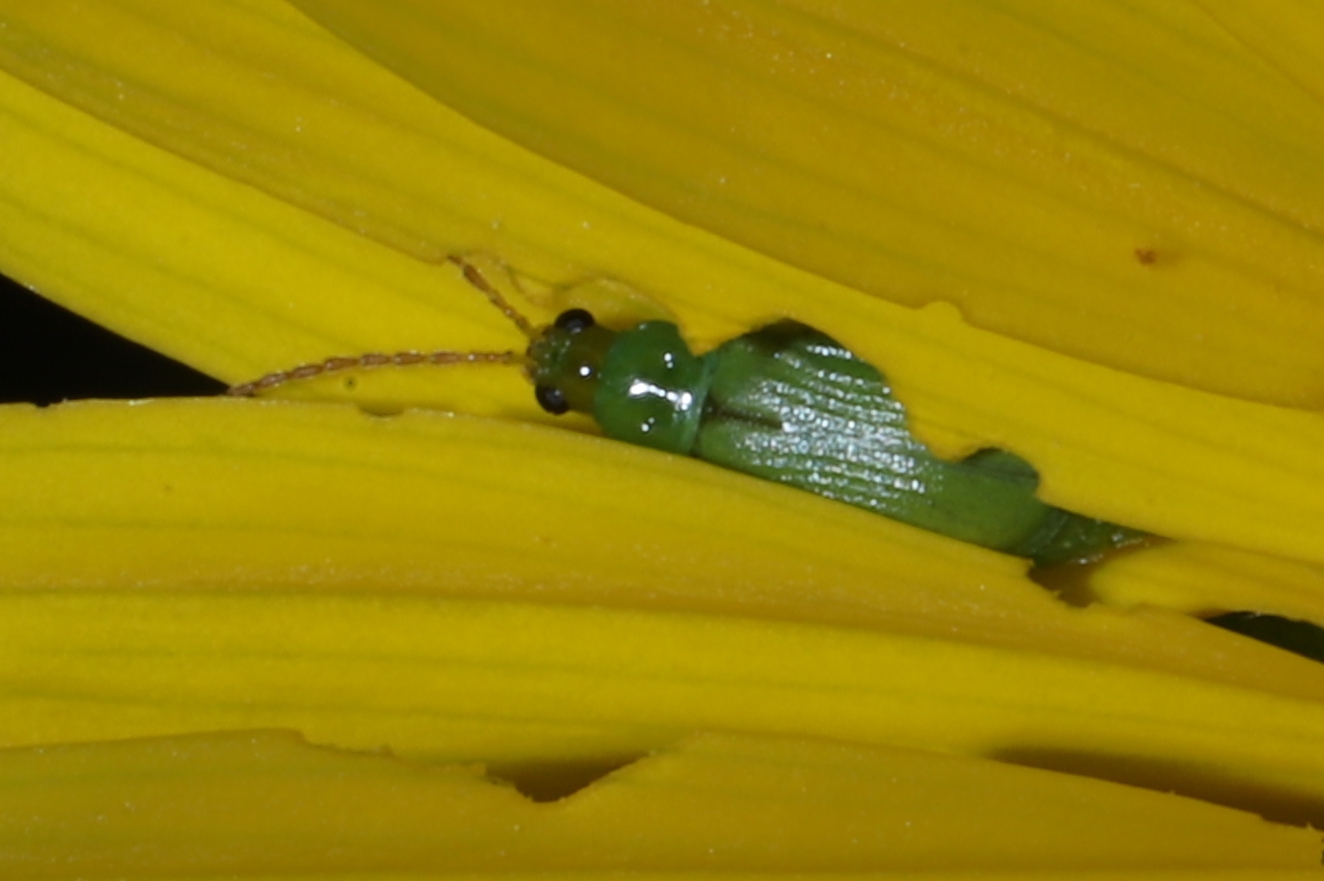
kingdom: Animalia
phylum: Arthropoda
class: Insecta
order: Coleoptera
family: Chrysomelidae
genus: Diabrotica
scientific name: Diabrotica barberi
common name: Northern corn rootworm
